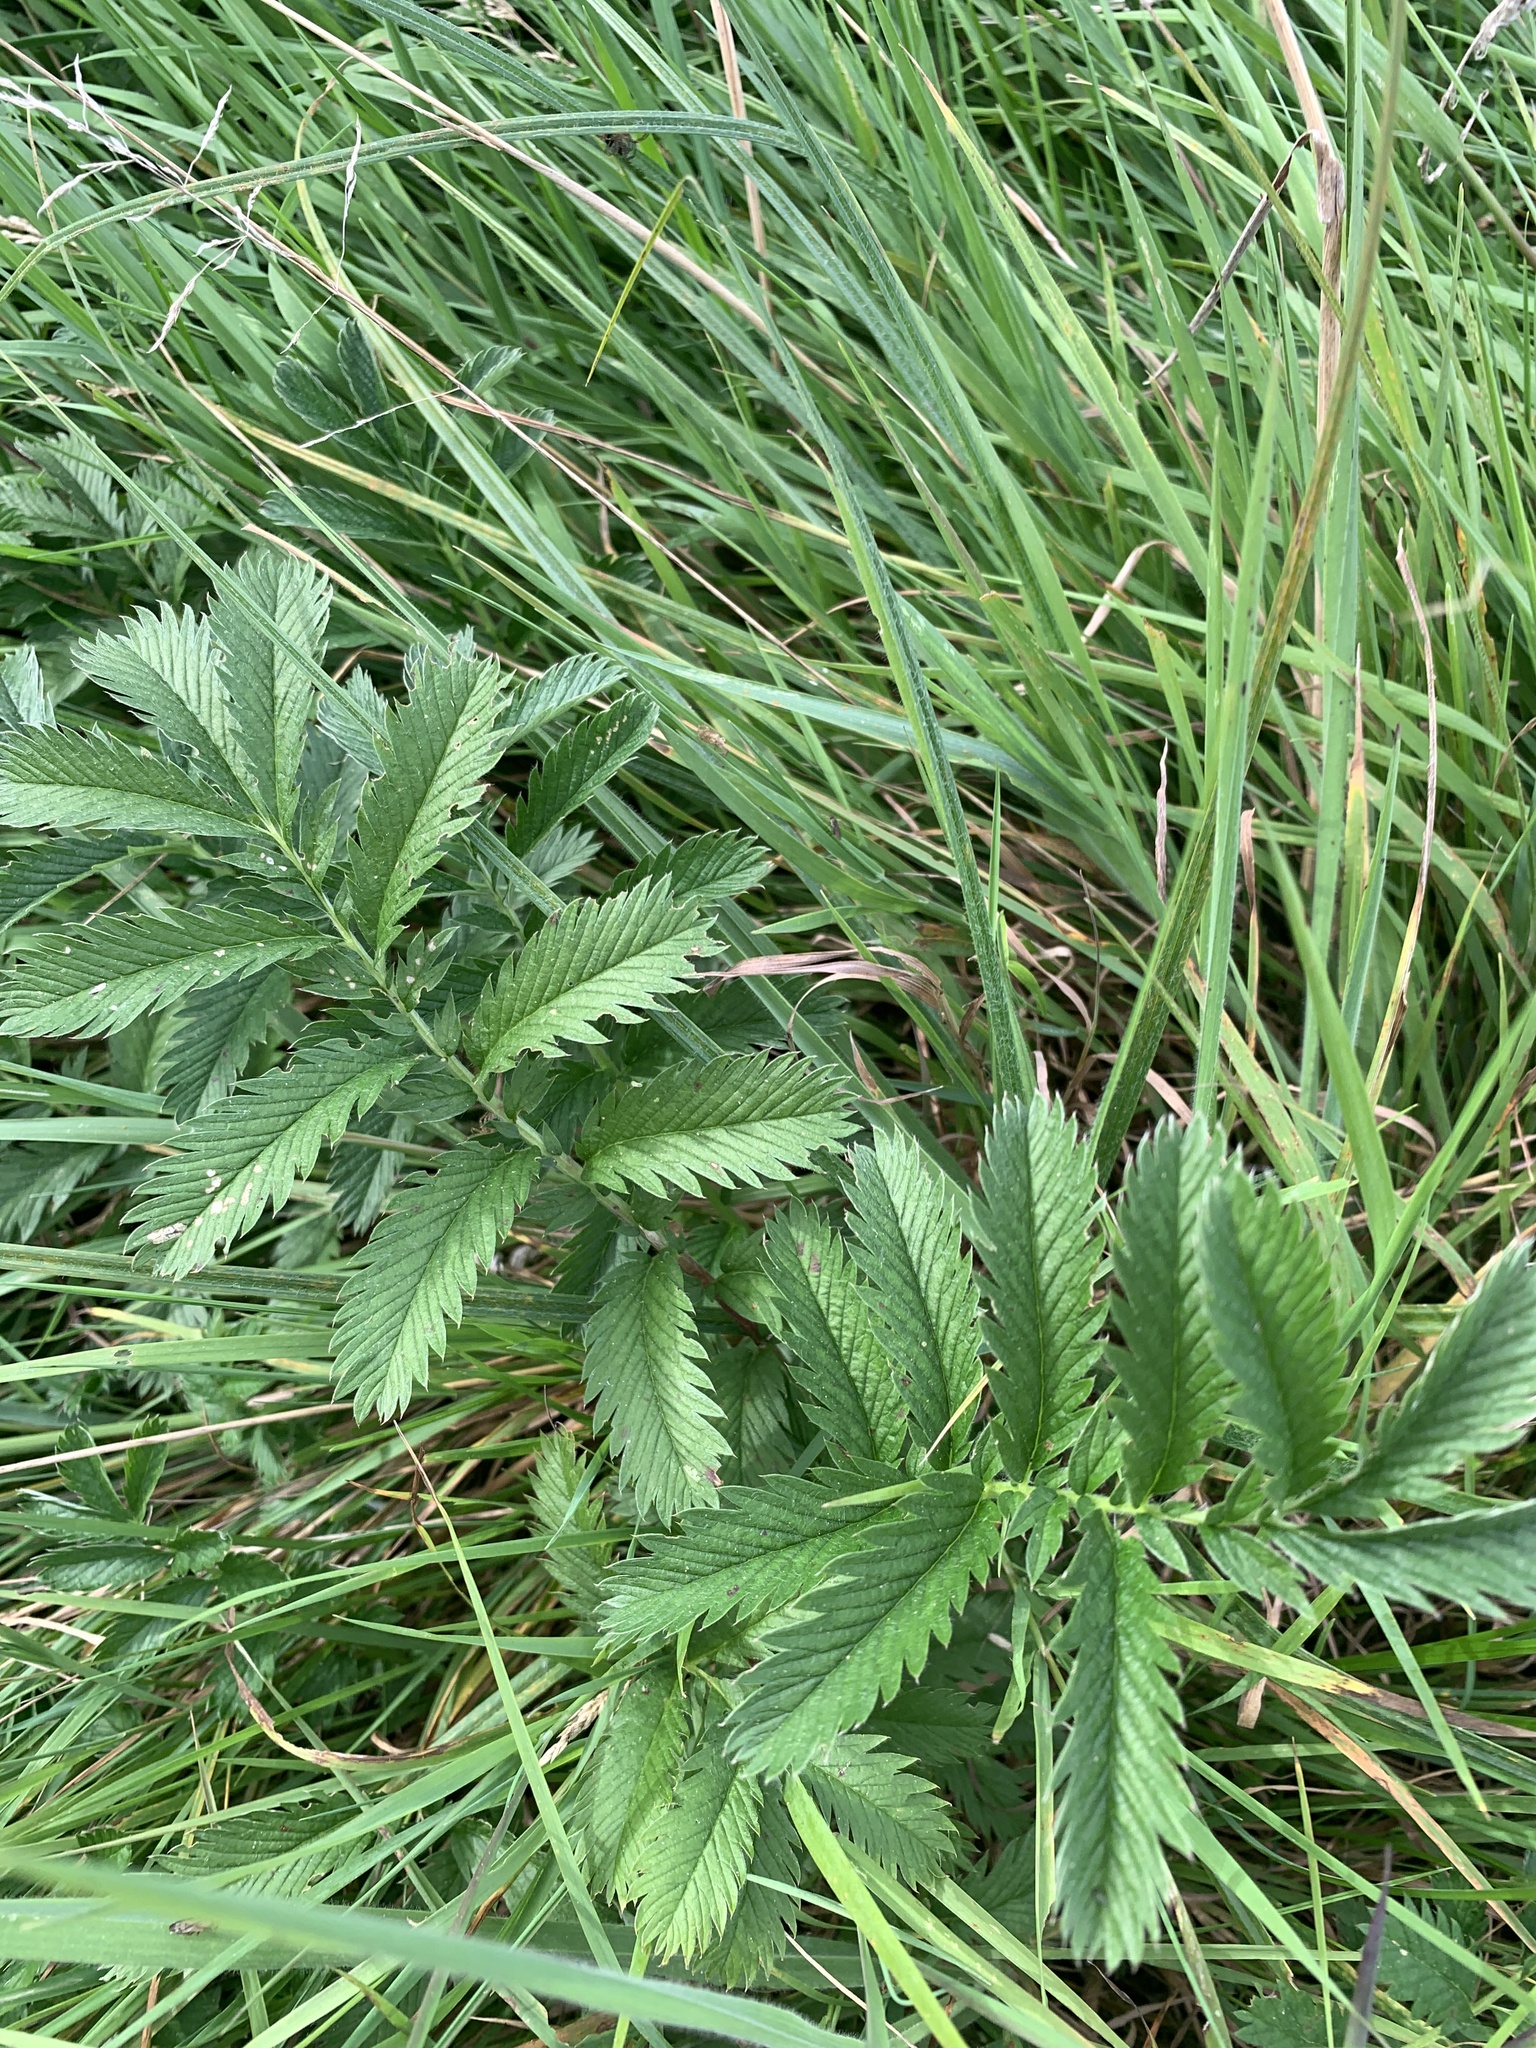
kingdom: Plantae
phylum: Tracheophyta
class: Magnoliopsida
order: Rosales
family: Rosaceae
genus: Argentina
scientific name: Argentina anserina
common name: Common silverweed
